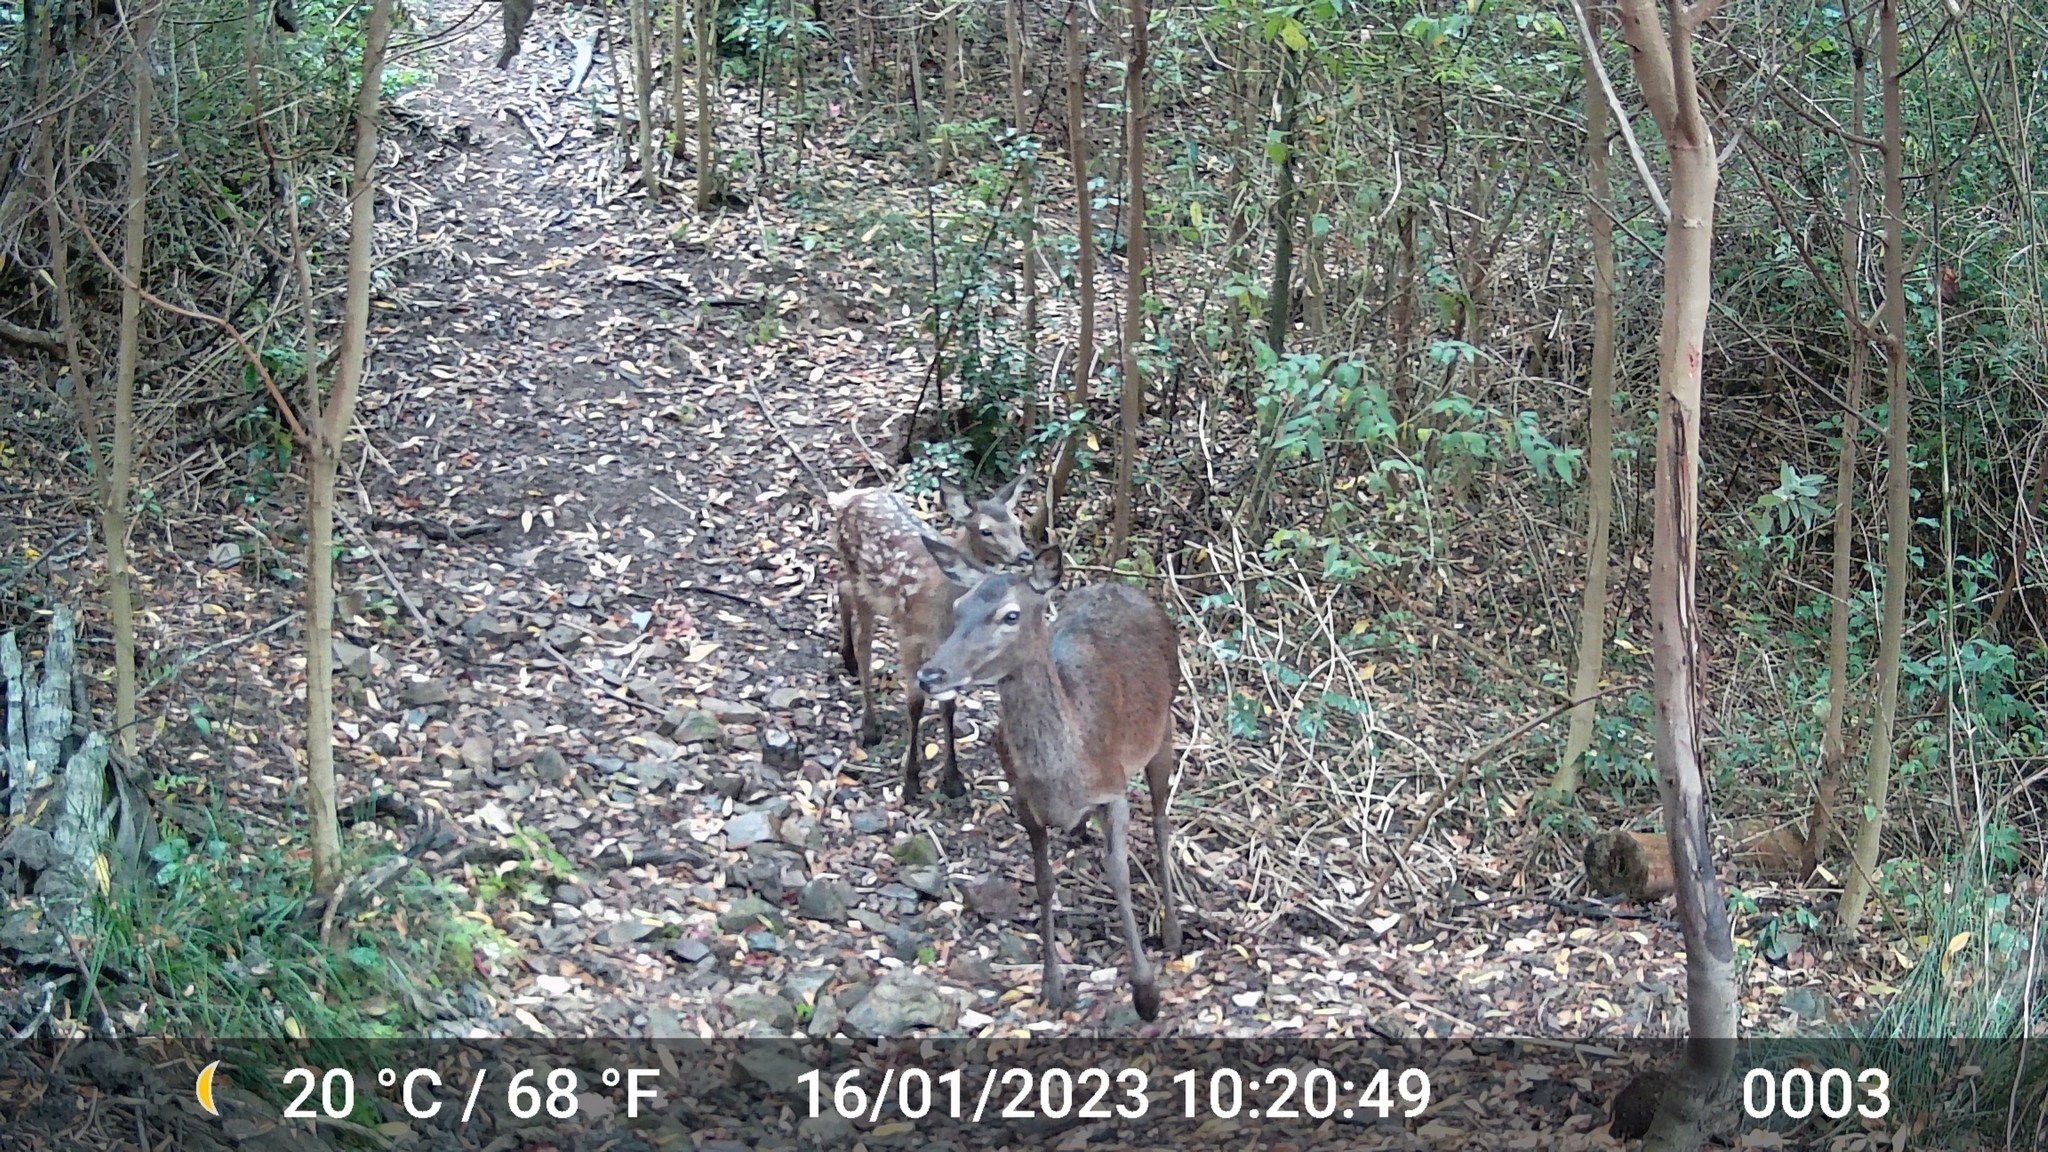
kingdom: Animalia
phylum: Chordata
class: Mammalia
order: Artiodactyla
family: Cervidae
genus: Cervus
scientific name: Cervus elaphus
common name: Red deer
